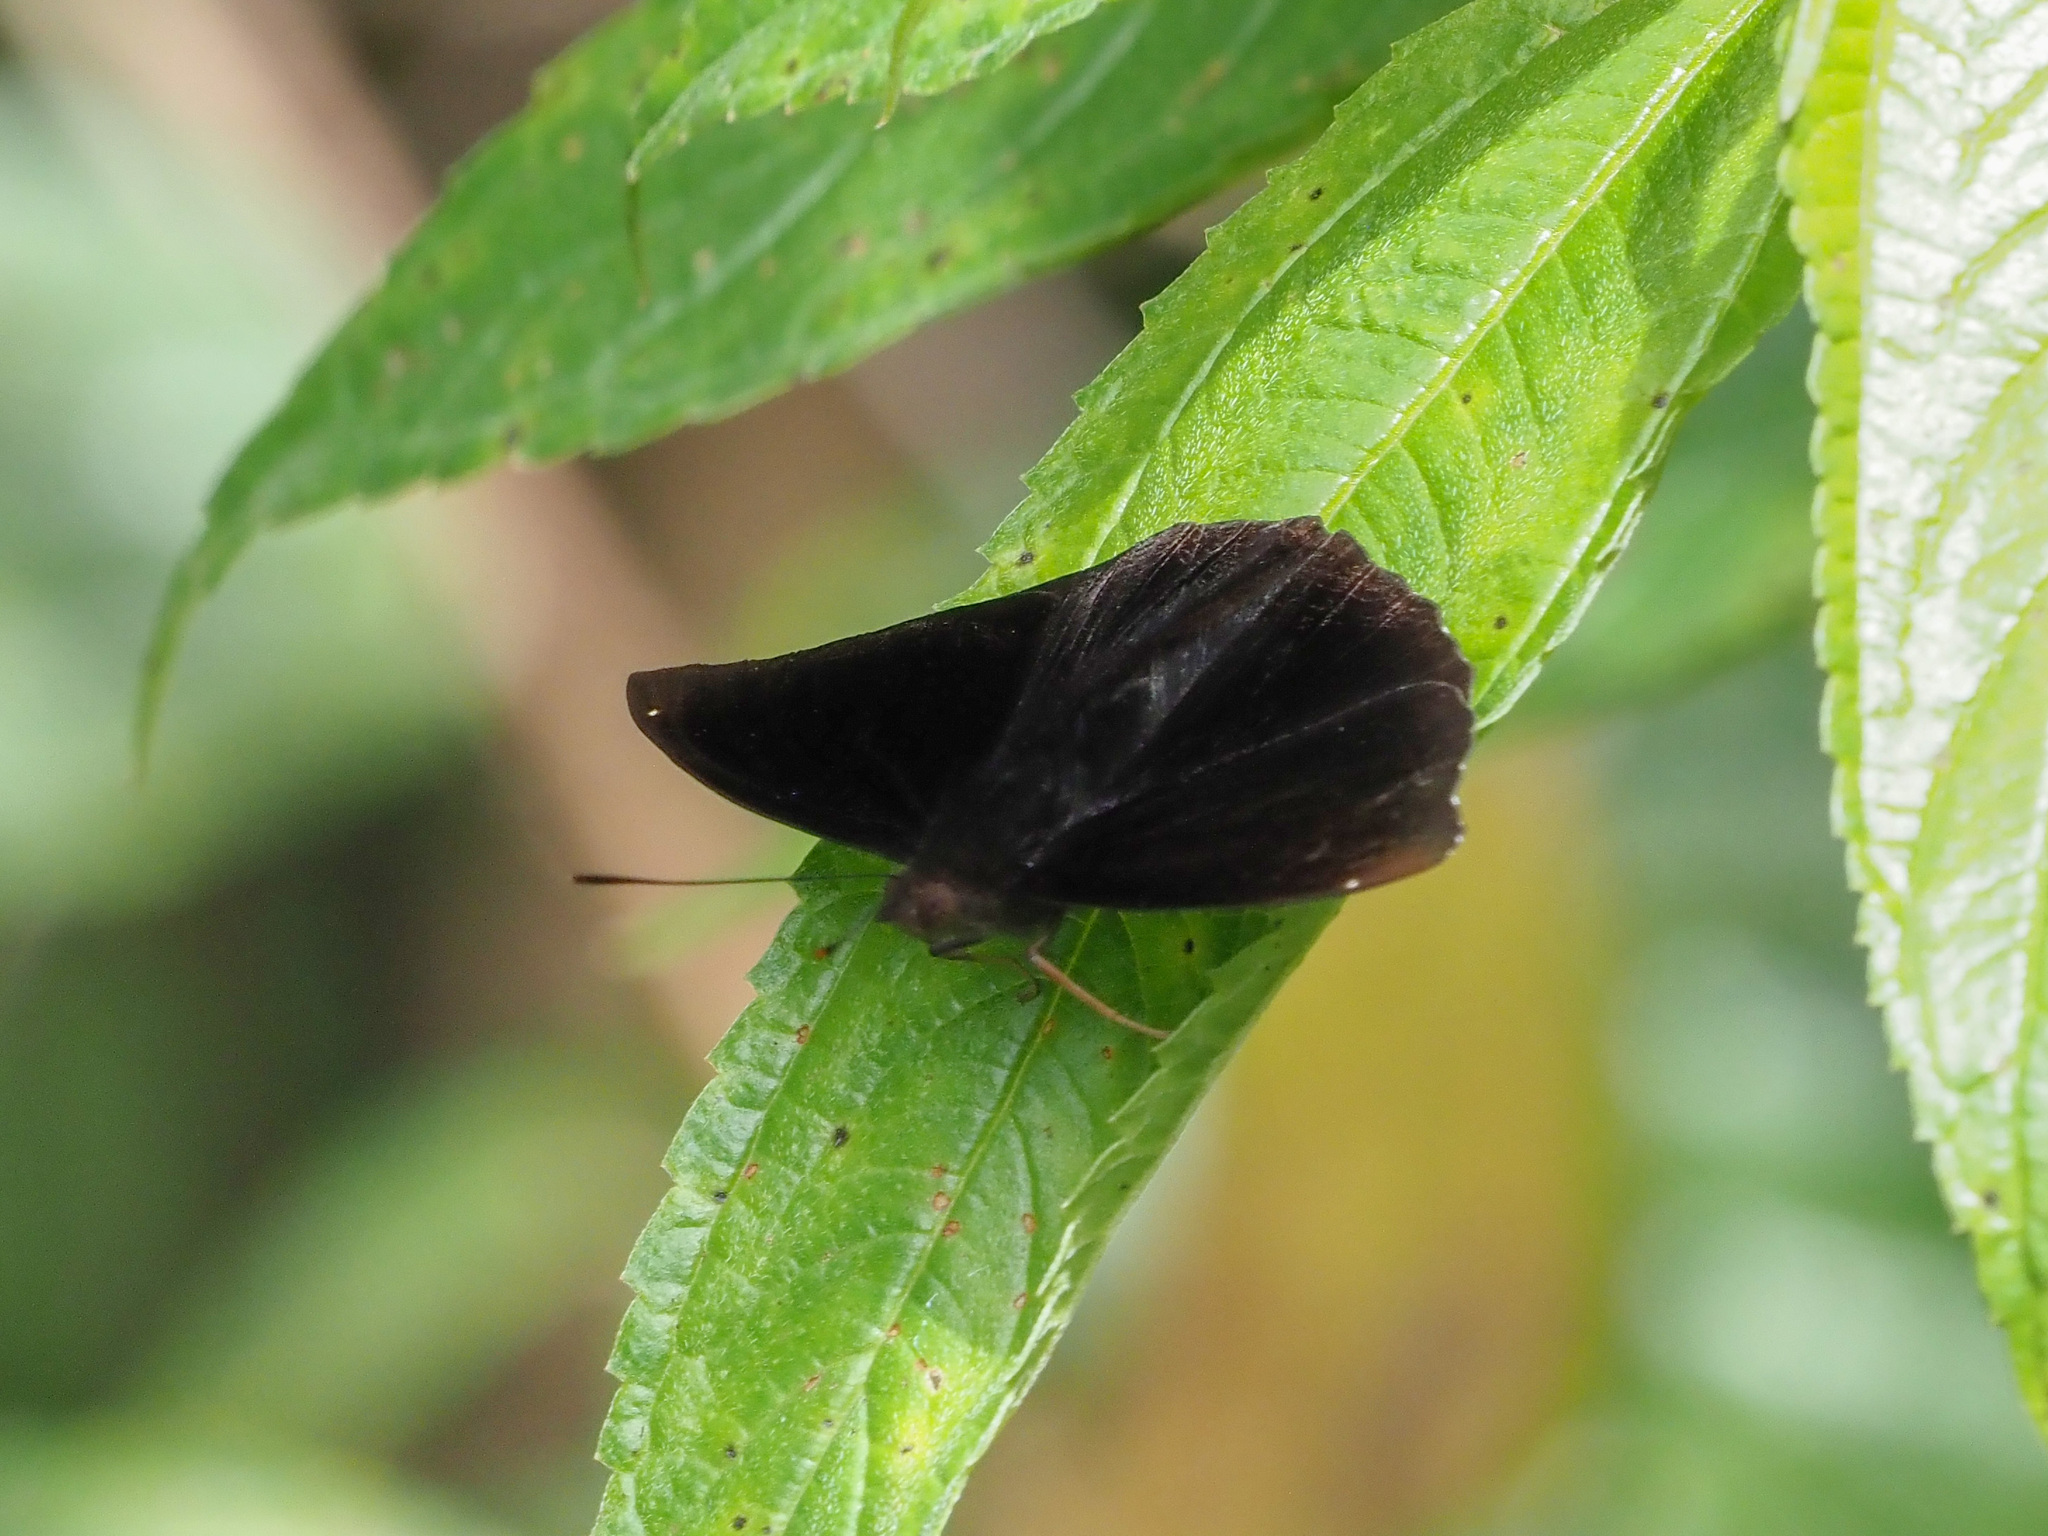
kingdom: Animalia
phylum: Arthropoda
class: Insecta
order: Lepidoptera
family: Nymphalidae
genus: Apatura
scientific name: Apatura Rohana spec
